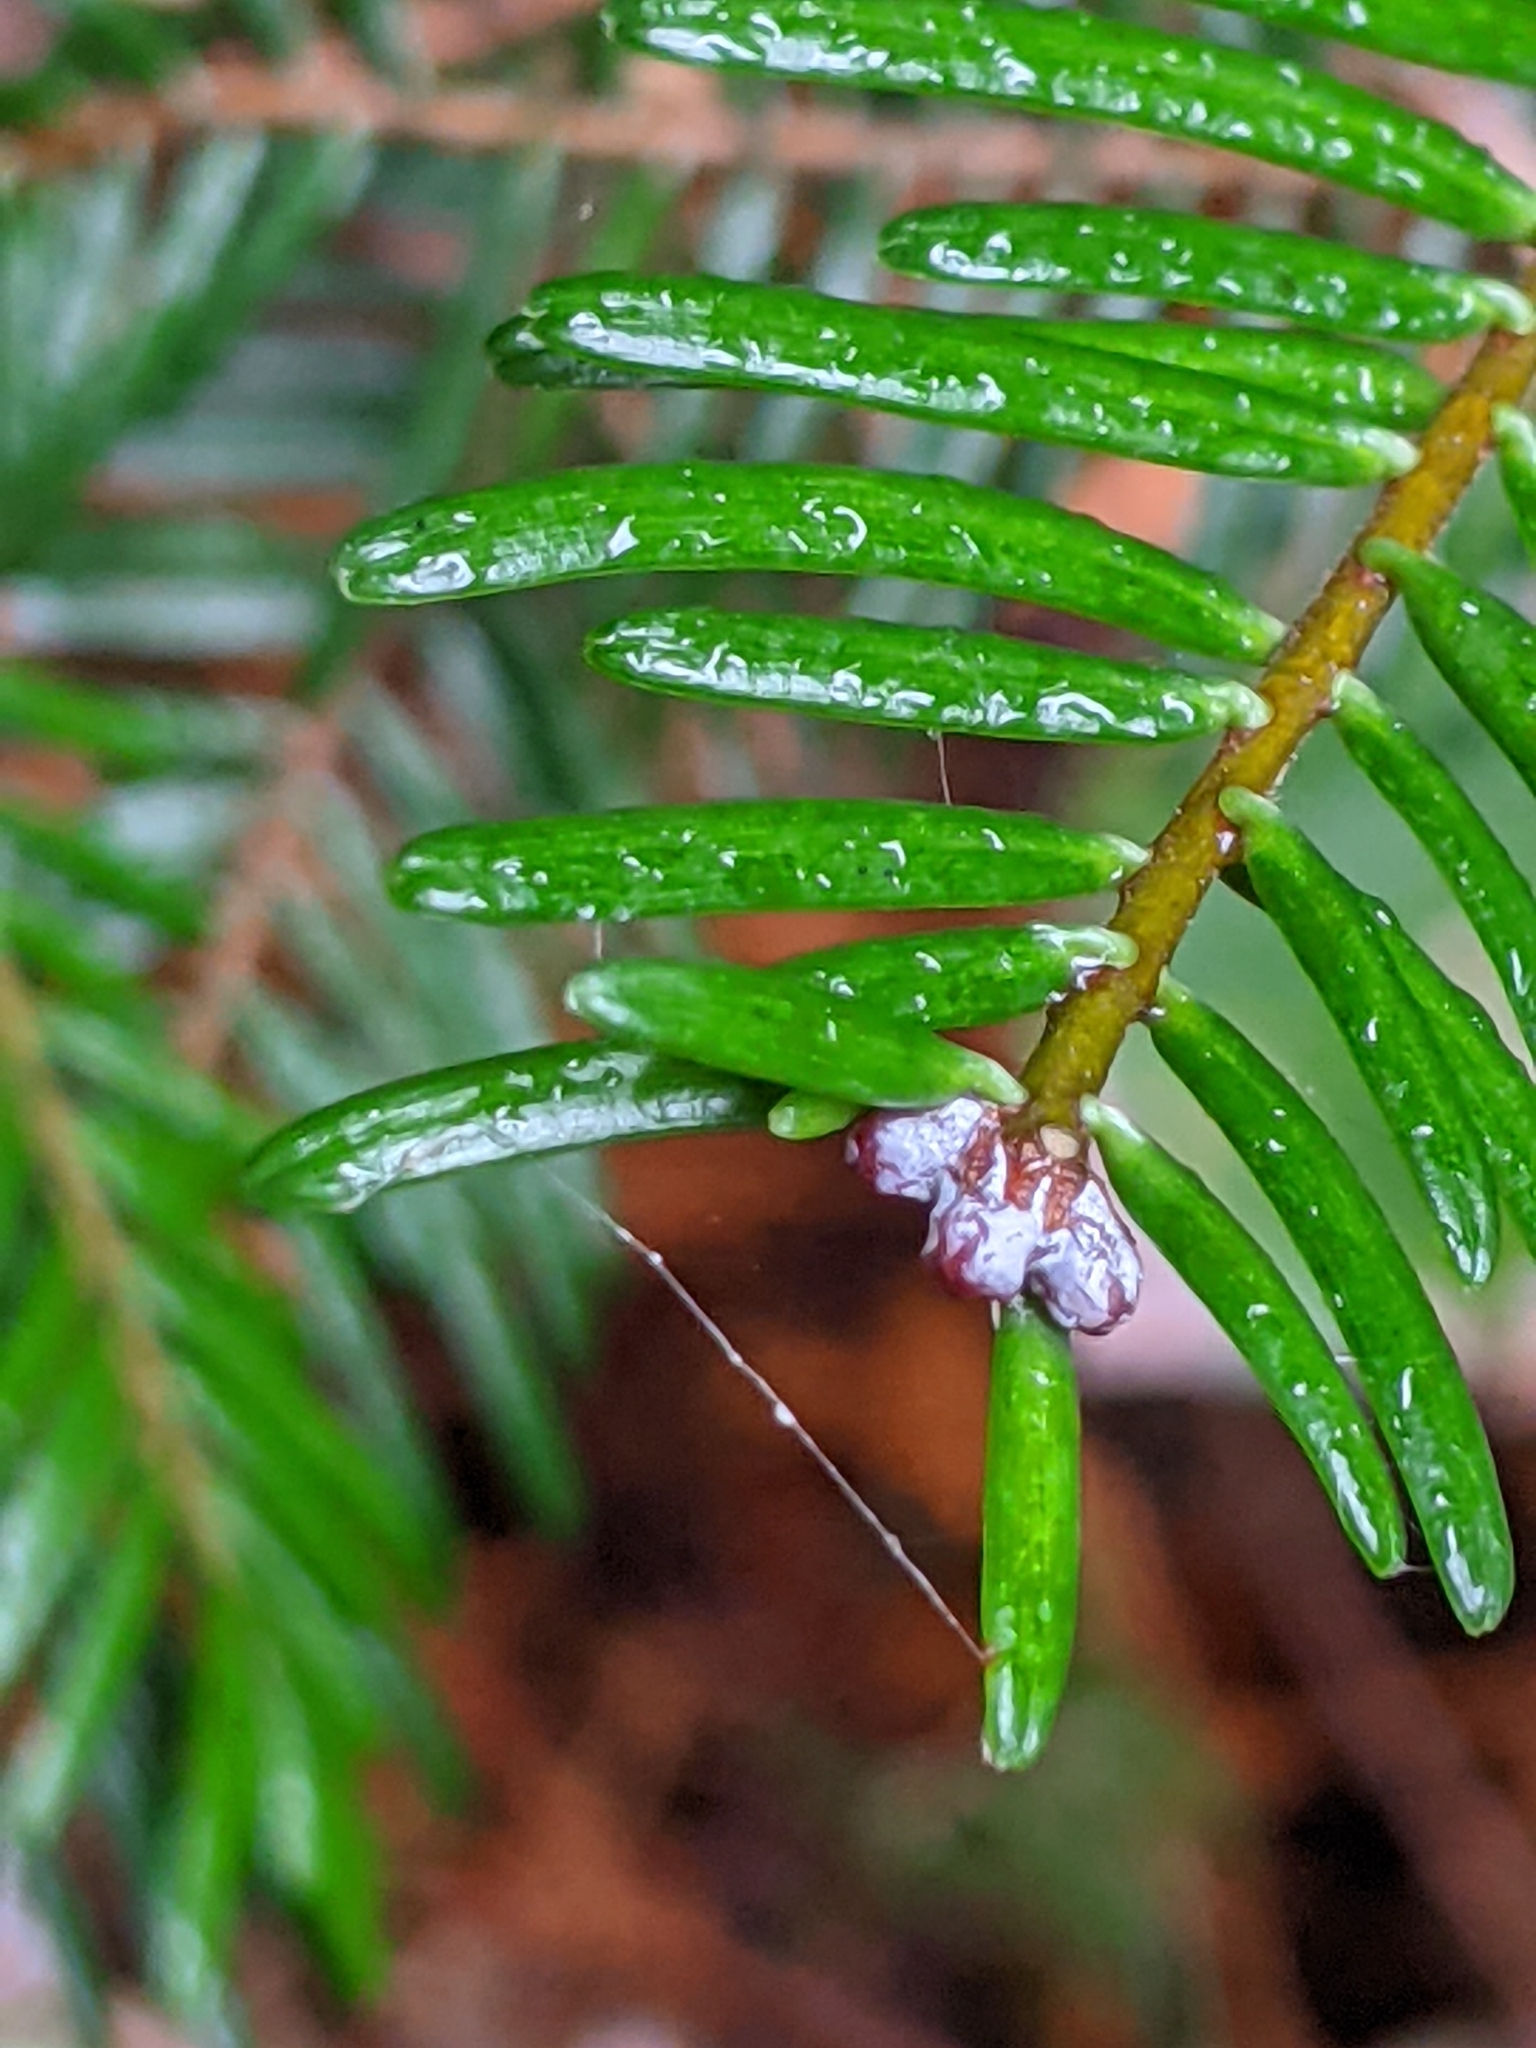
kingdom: Plantae
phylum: Tracheophyta
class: Pinopsida
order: Pinales
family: Pinaceae
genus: Abies
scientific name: Abies grandis
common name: Giant fir
